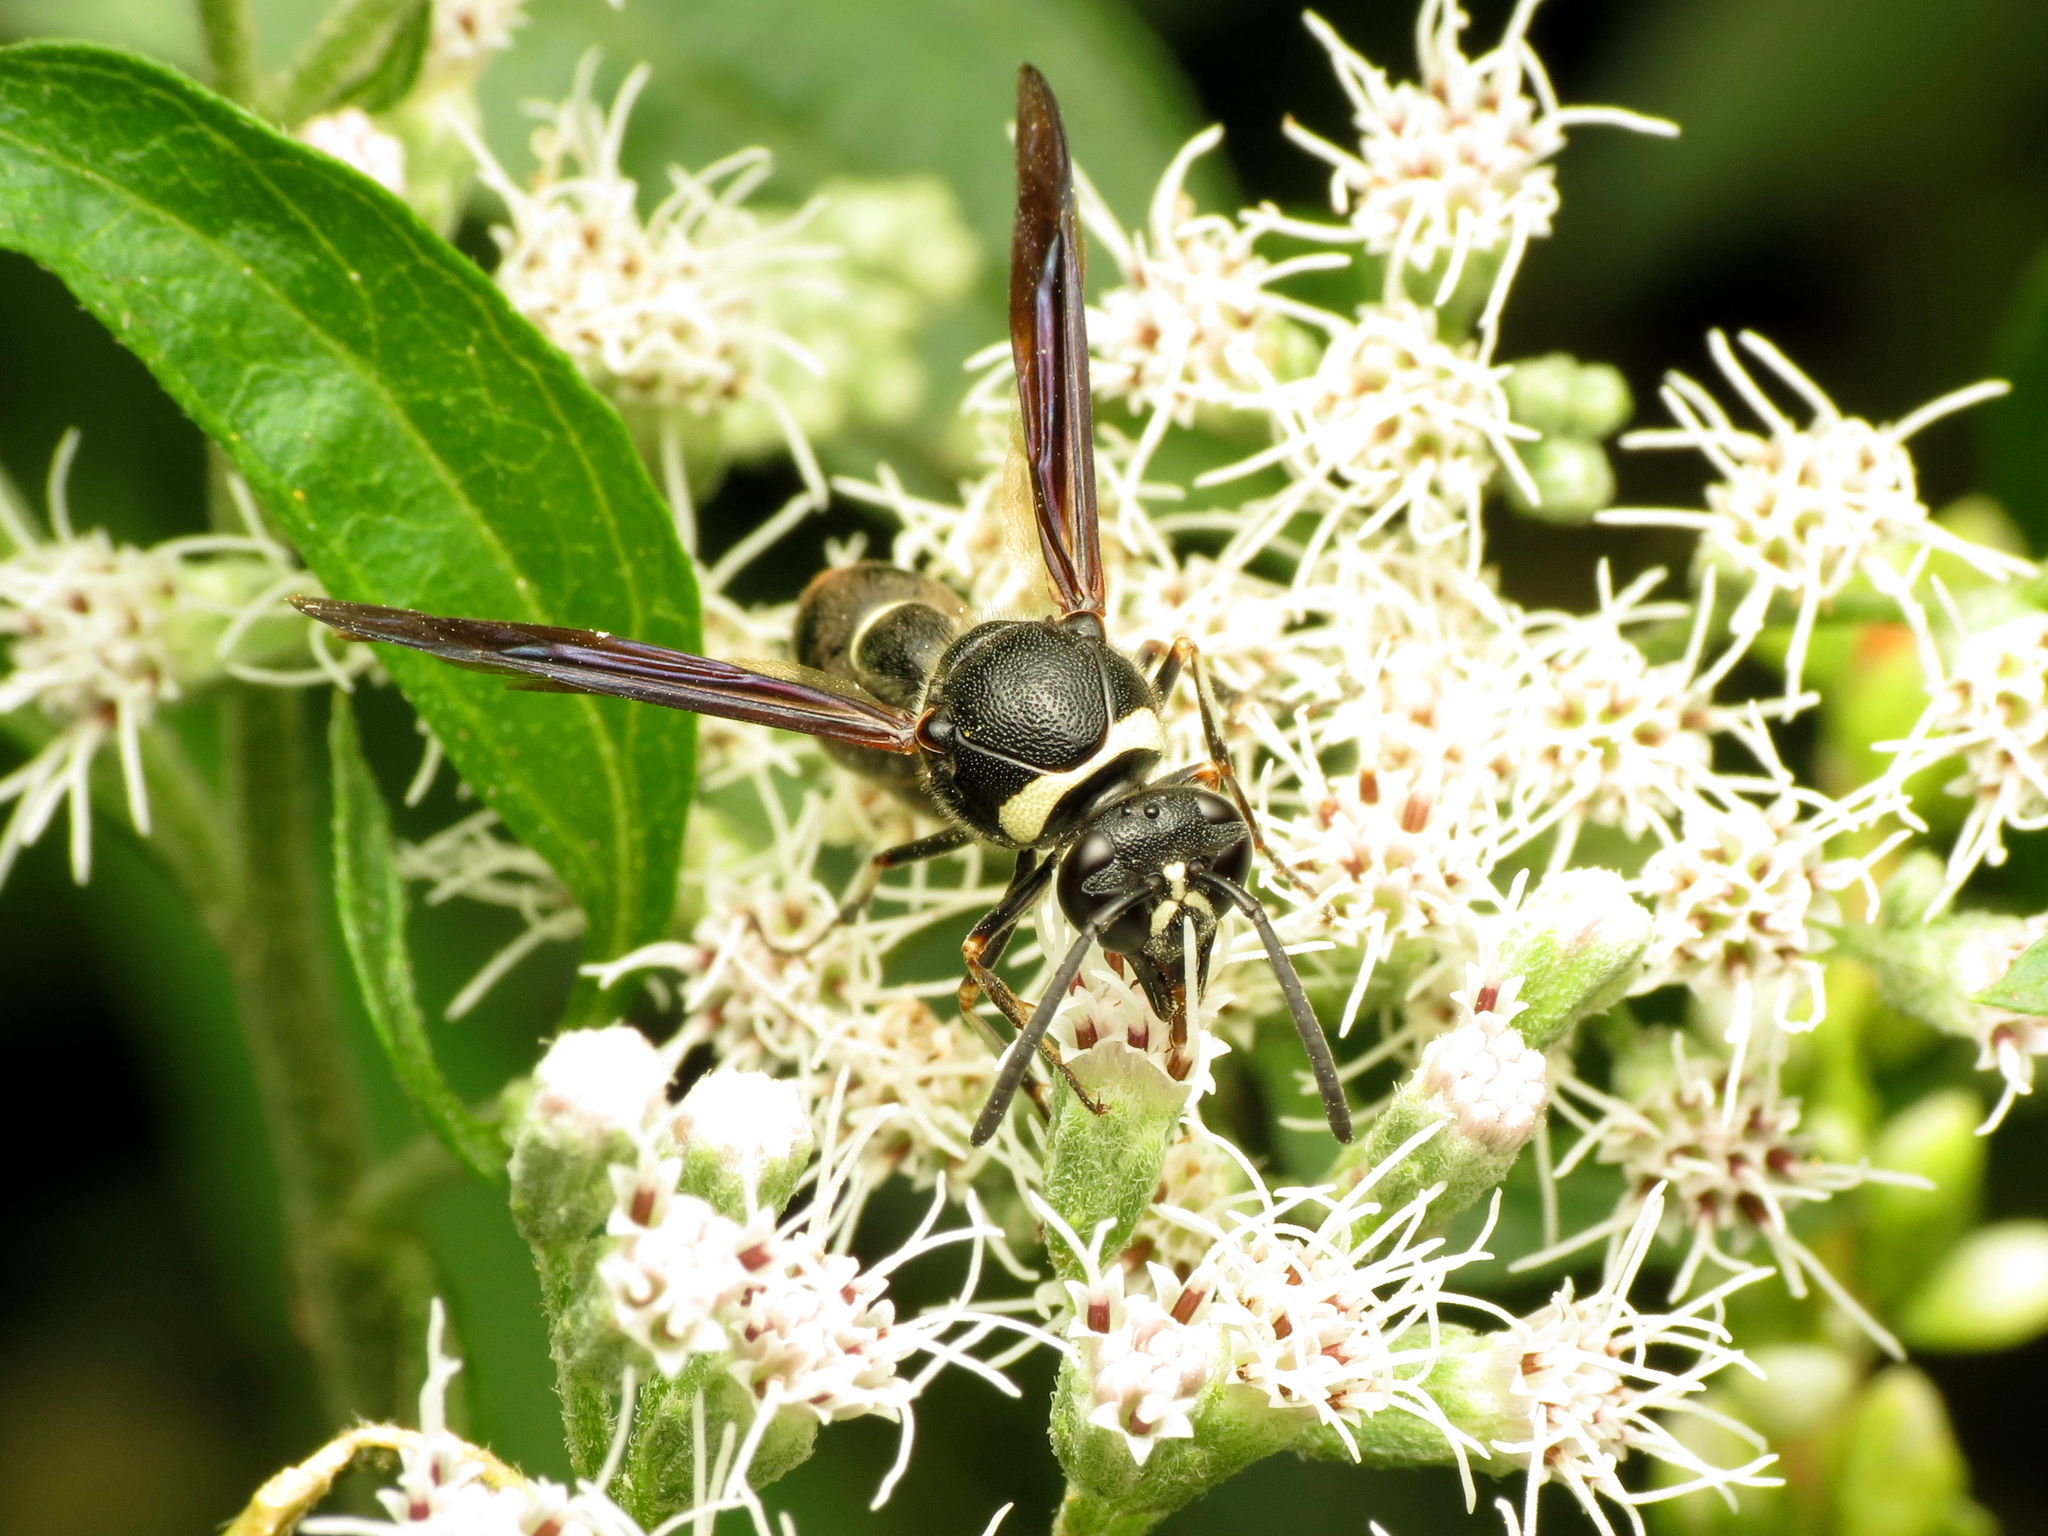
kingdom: Animalia
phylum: Arthropoda
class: Insecta
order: Hymenoptera
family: Vespidae
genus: Eumenes
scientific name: Eumenes fraternus
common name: Fraternal potter wasp
